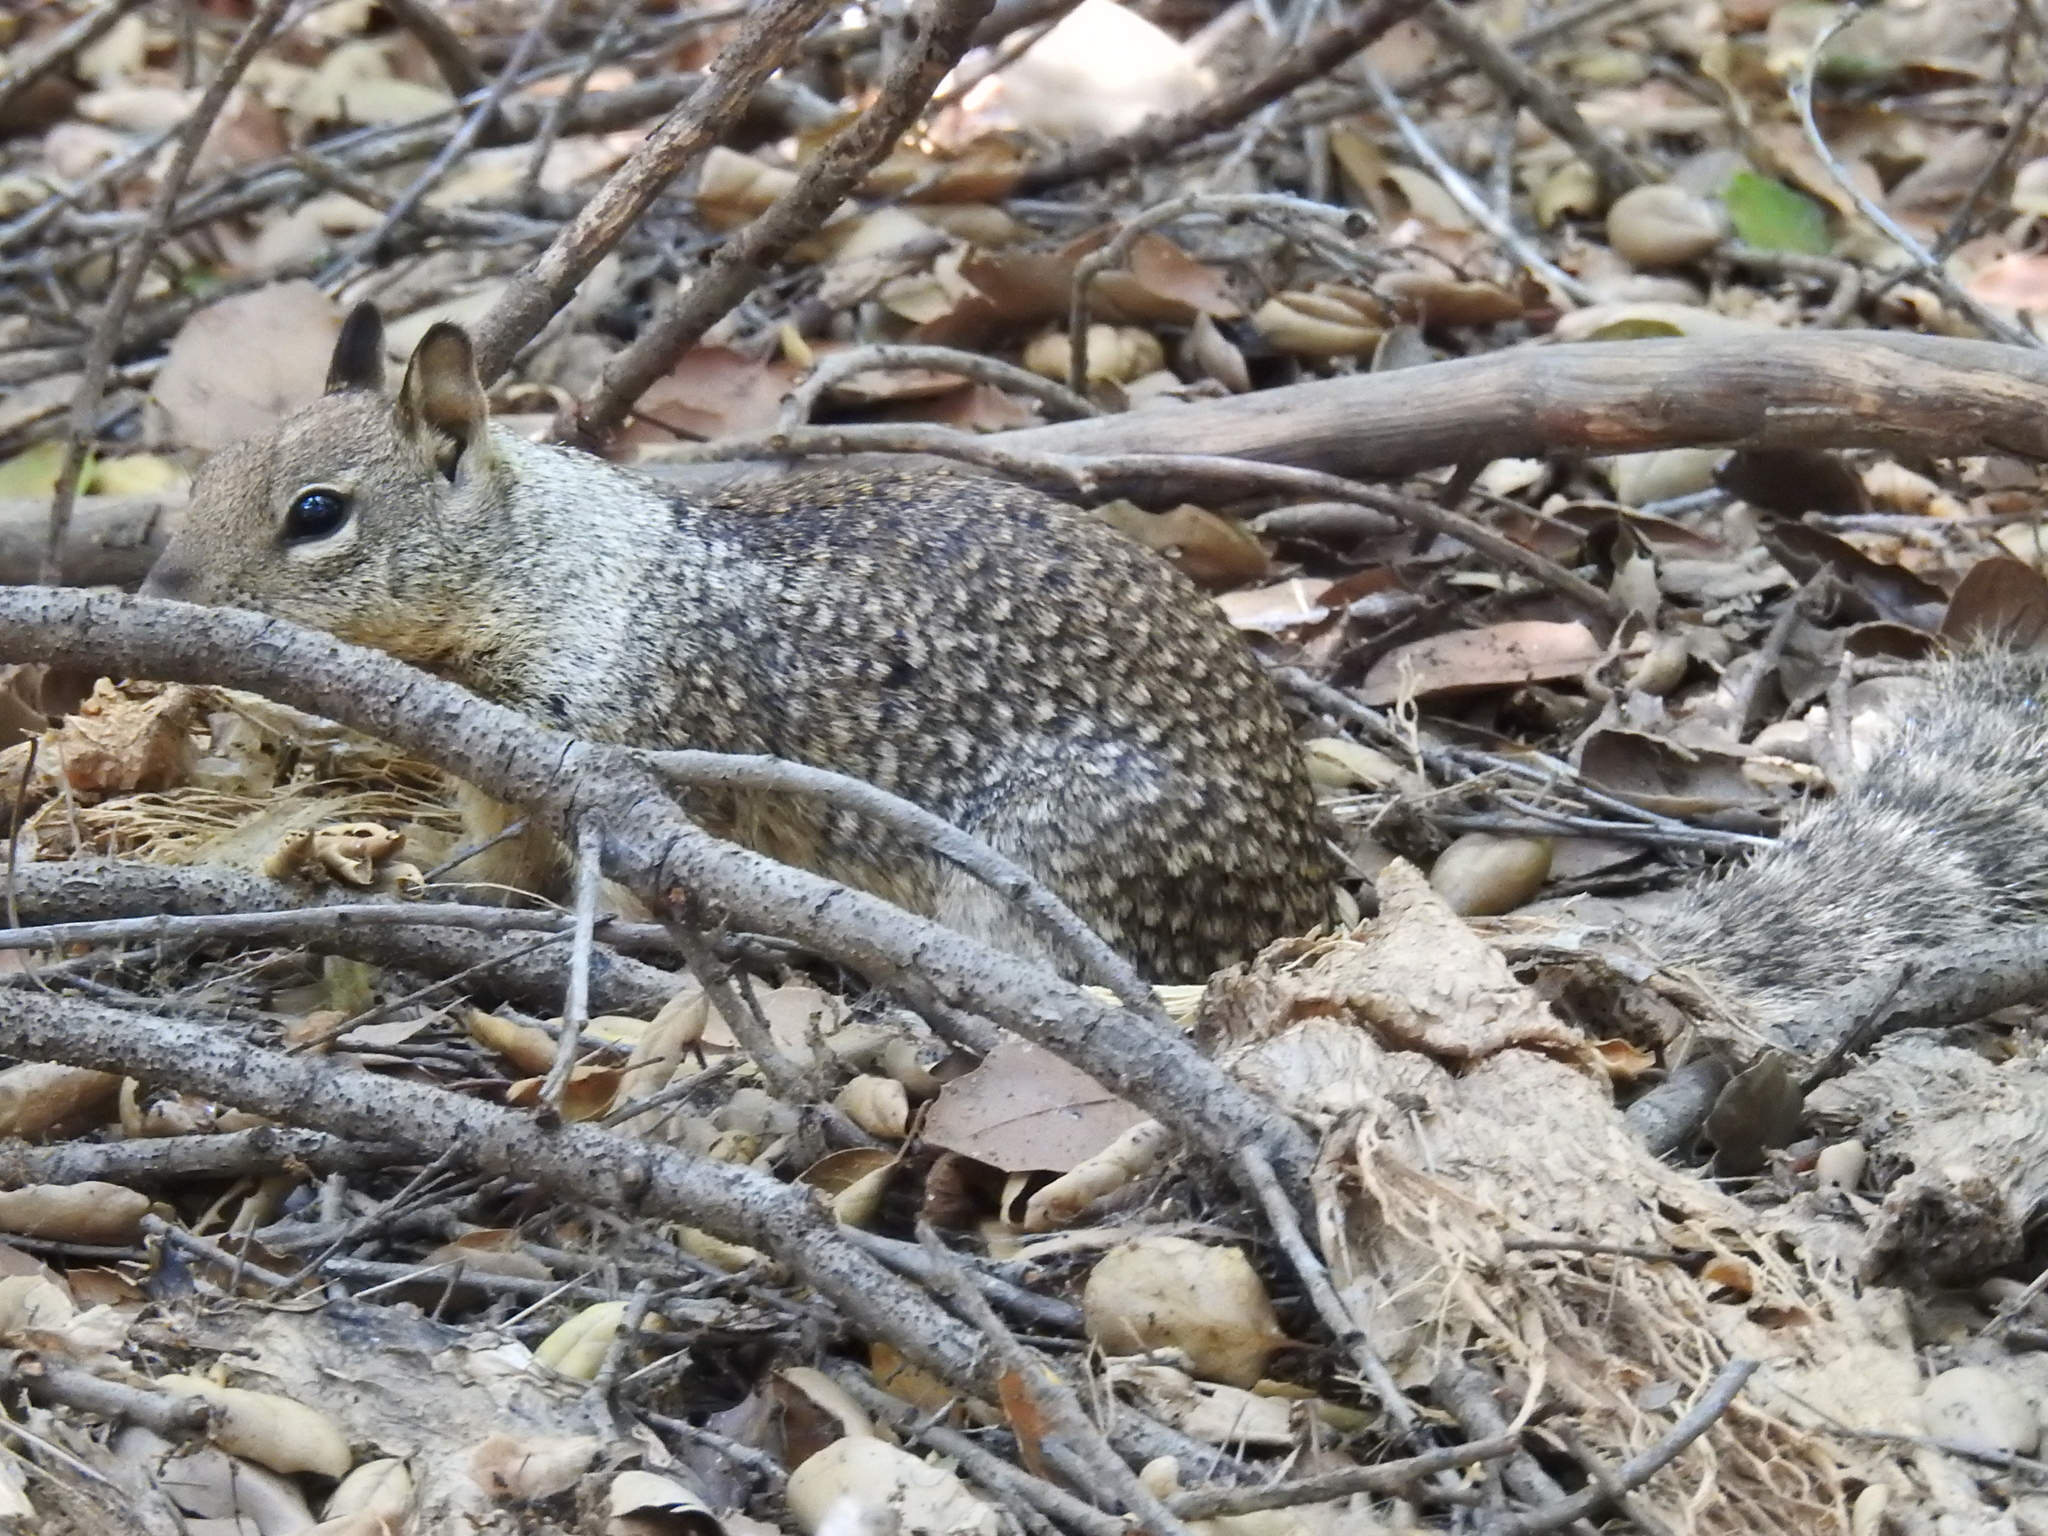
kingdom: Animalia
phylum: Chordata
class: Mammalia
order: Rodentia
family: Sciuridae
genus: Otospermophilus
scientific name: Otospermophilus beecheyi
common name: California ground squirrel
